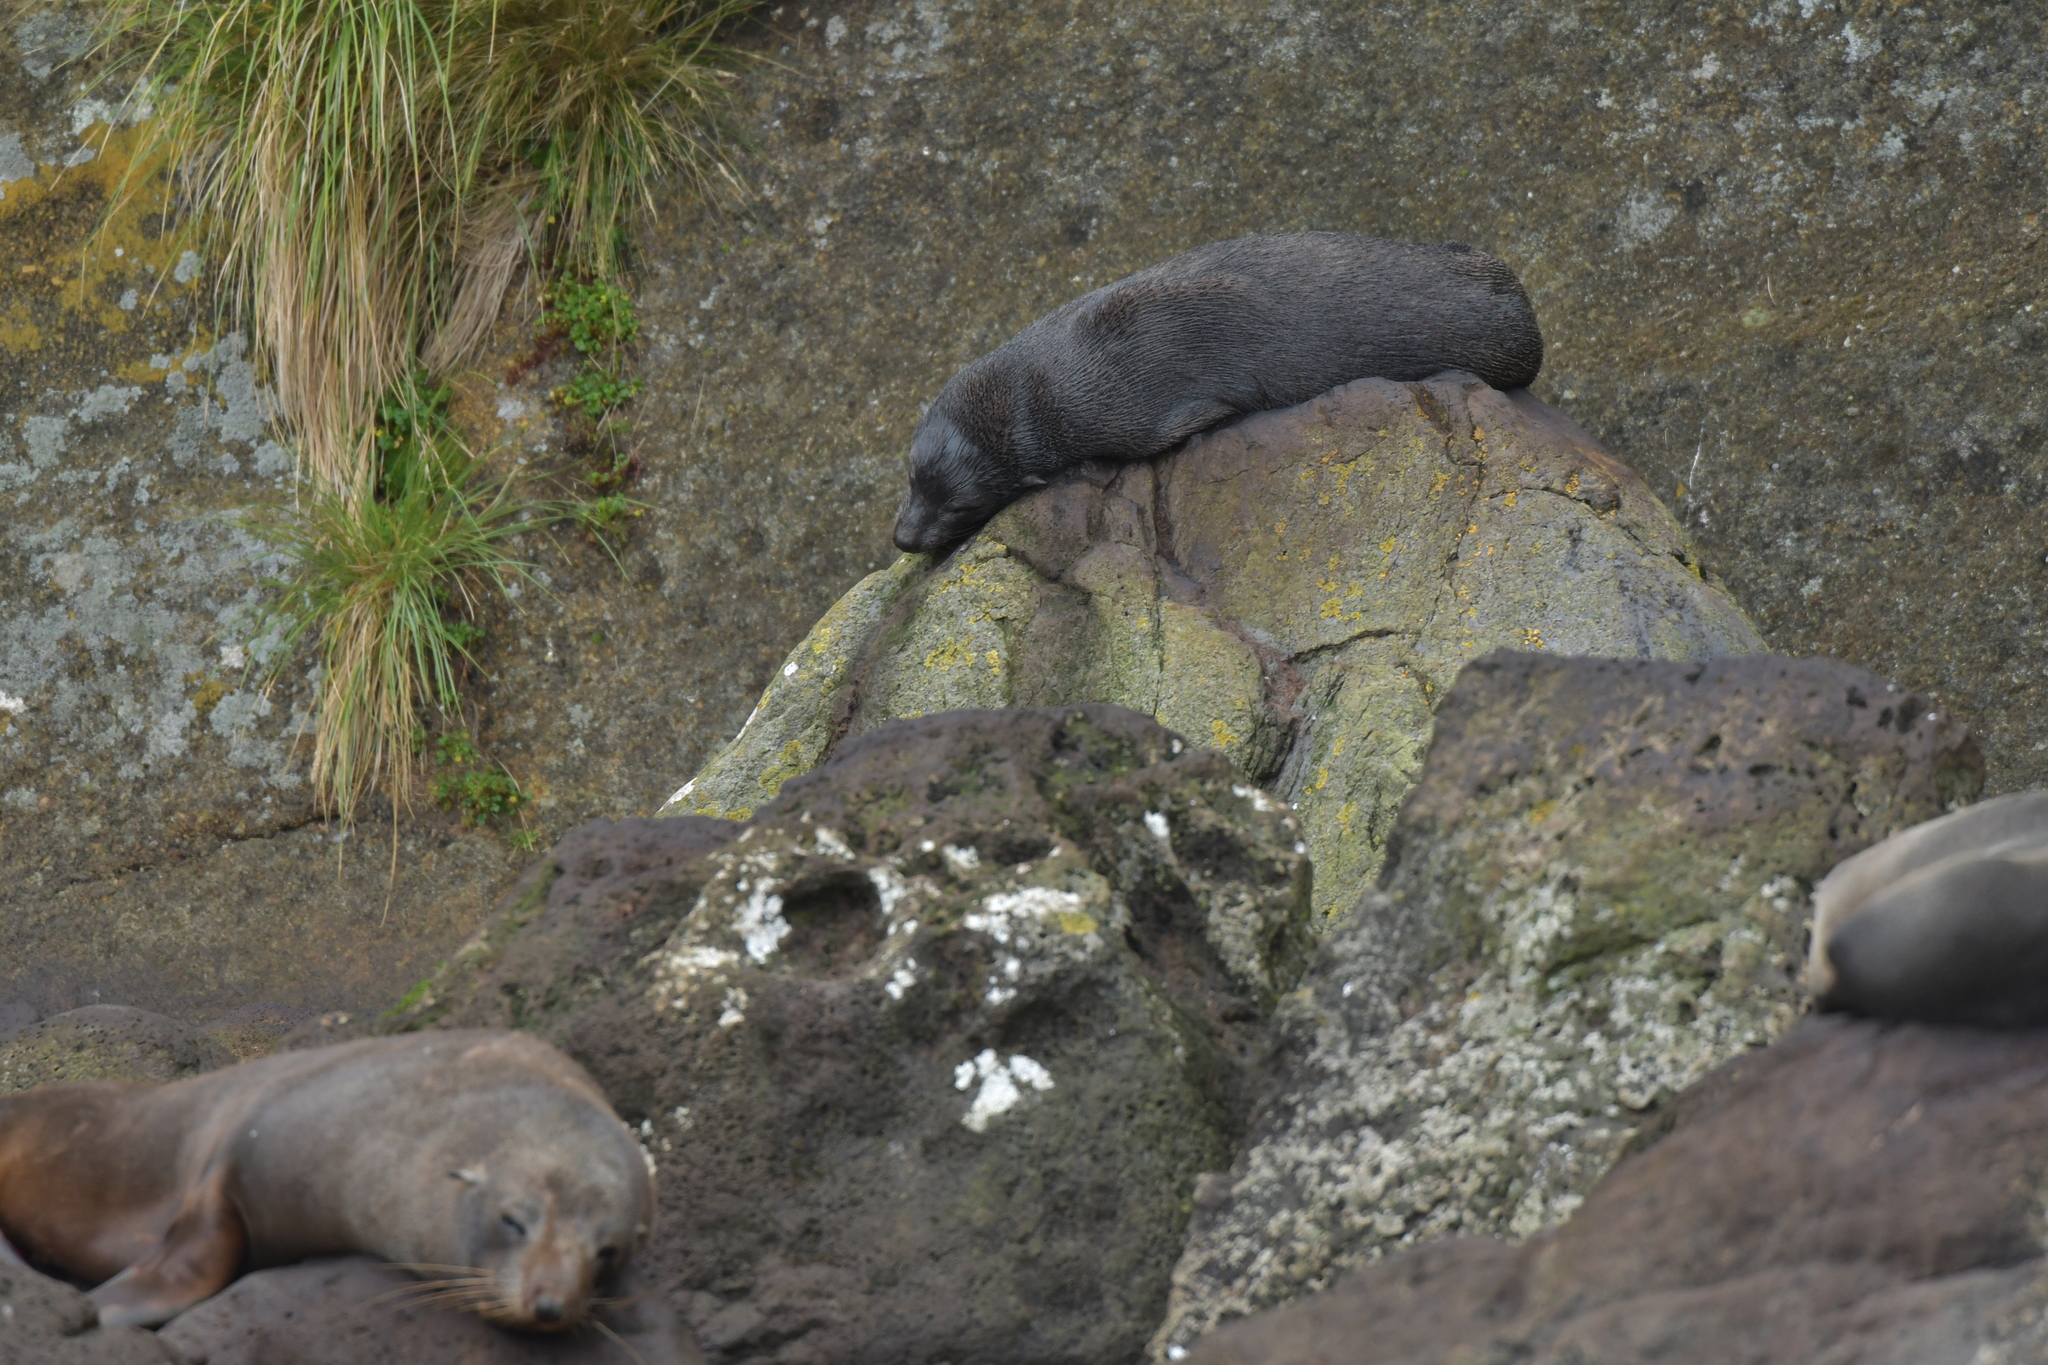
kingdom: Animalia
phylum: Chordata
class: Mammalia
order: Carnivora
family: Otariidae
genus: Arctocephalus
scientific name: Arctocephalus forsteri
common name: New zealand fur seal
